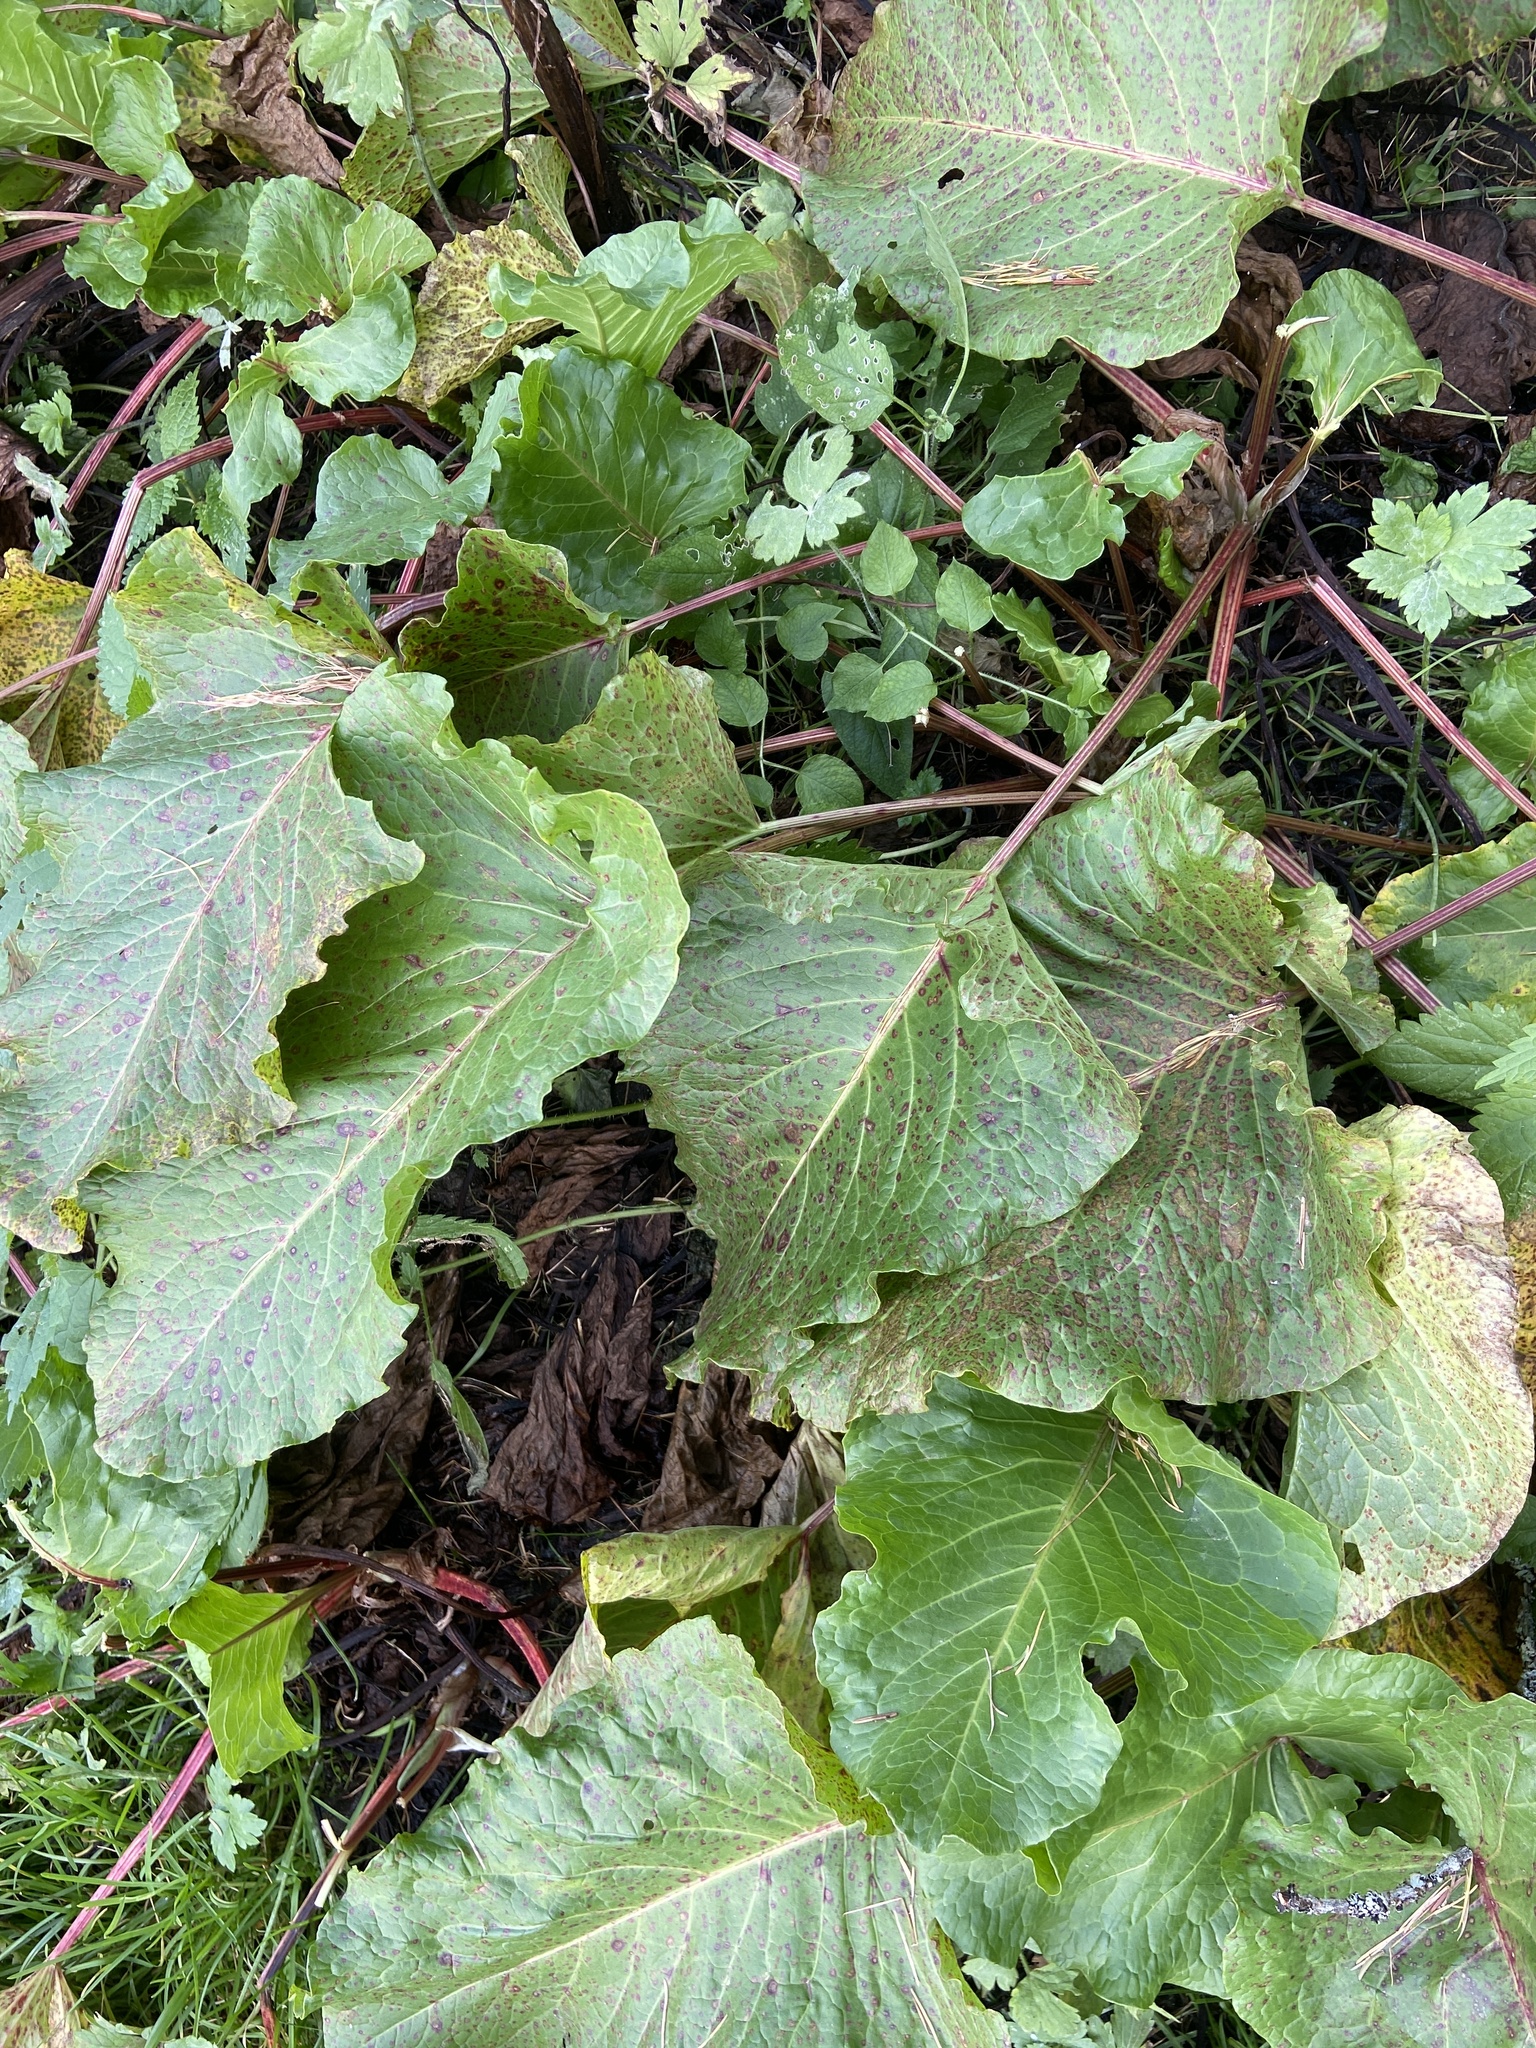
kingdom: Plantae
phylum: Tracheophyta
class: Magnoliopsida
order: Caryophyllales
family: Polygonaceae
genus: Rumex
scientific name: Rumex alpinus
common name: Alpine dock
